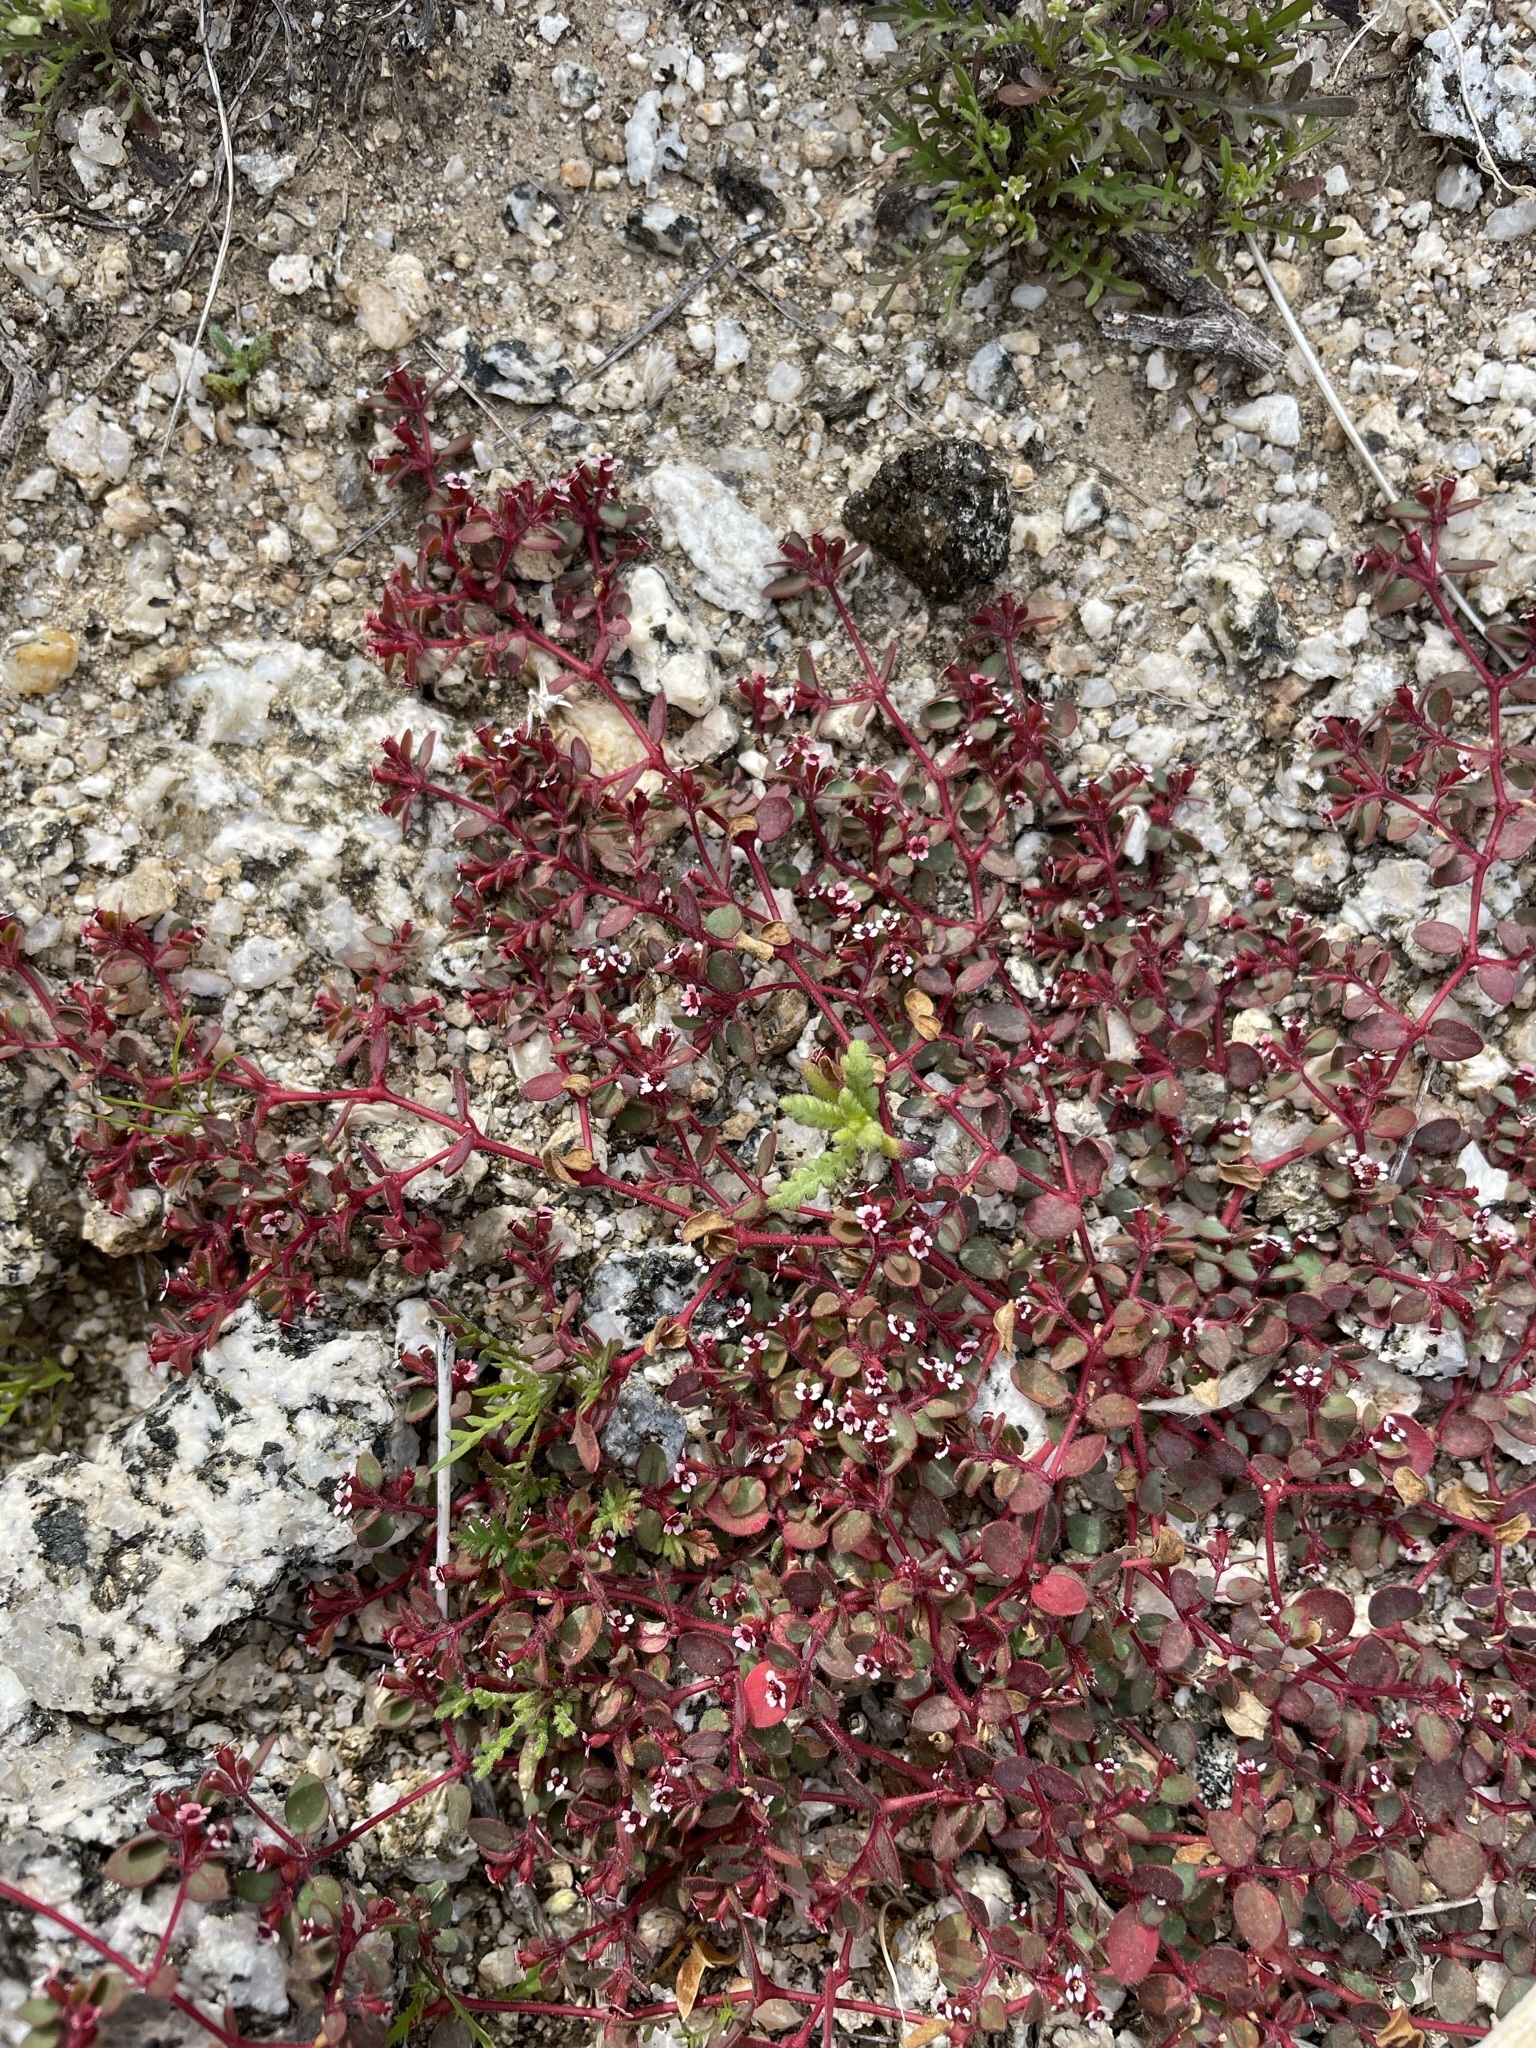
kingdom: Plantae
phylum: Tracheophyta
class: Magnoliopsida
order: Malpighiales
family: Euphorbiaceae
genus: Euphorbia
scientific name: Euphorbia arizonica
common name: Arizona spurge
